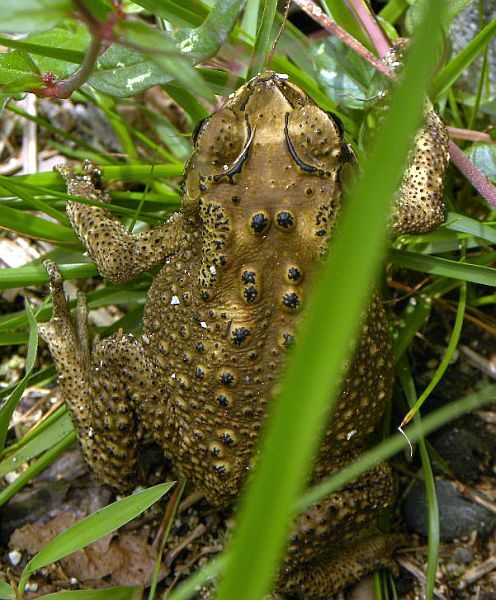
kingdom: Animalia
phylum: Chordata
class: Amphibia
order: Anura
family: Bufonidae
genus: Duttaphrynus
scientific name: Duttaphrynus melanostictus
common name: Common sunda toad
